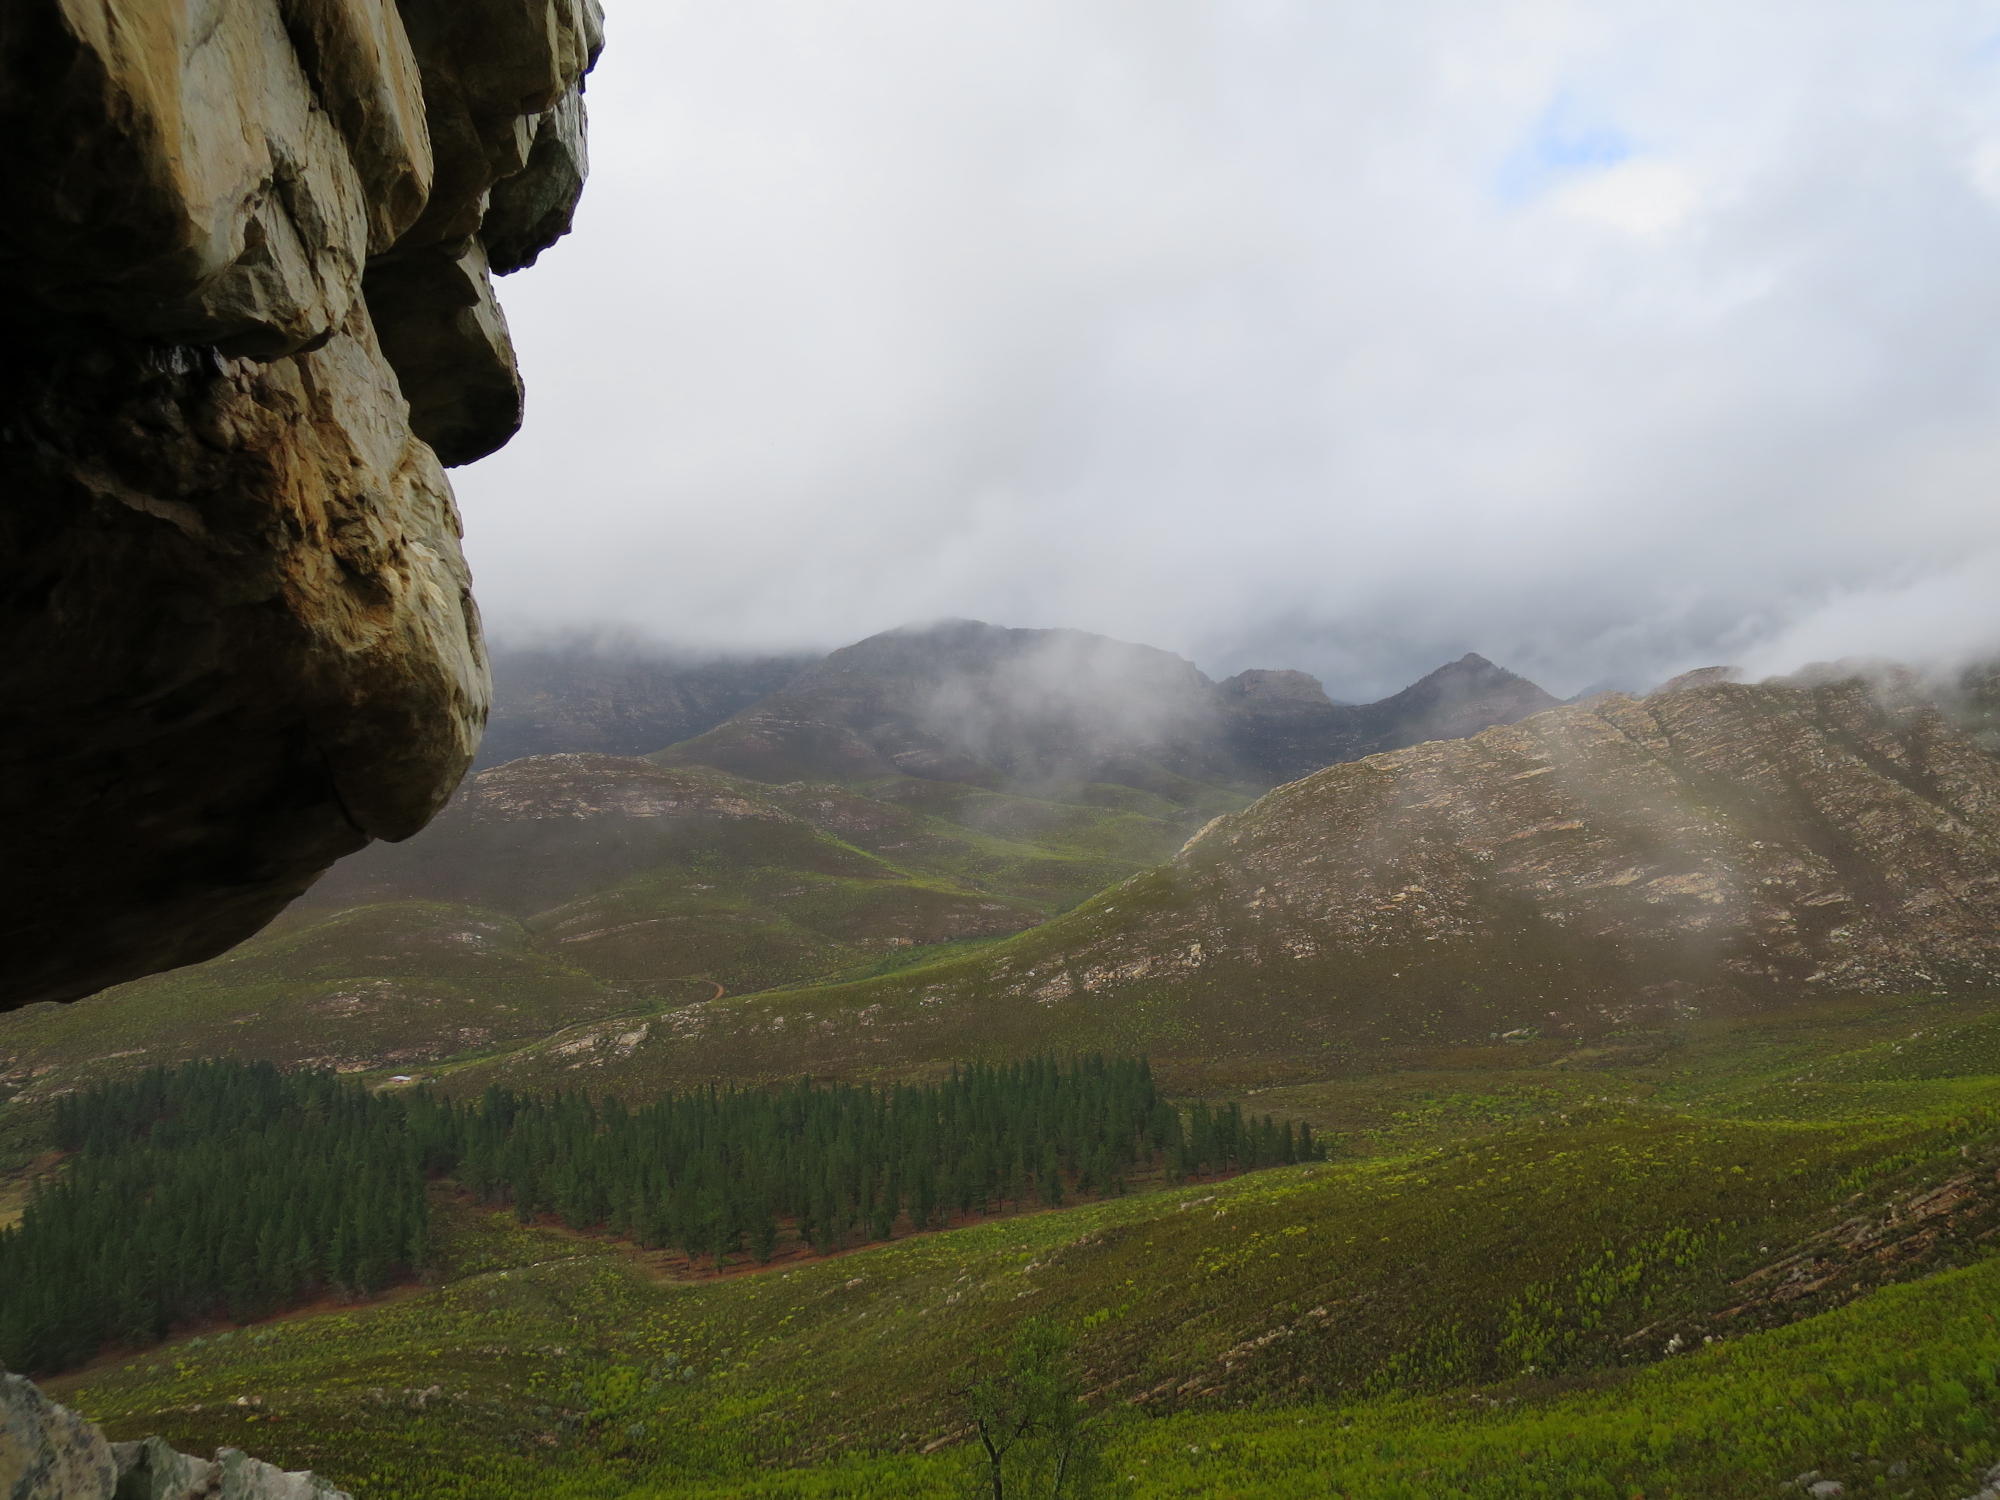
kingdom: Plantae
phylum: Tracheophyta
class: Pinopsida
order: Pinales
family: Pinaceae
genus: Pinus
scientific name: Pinus radiata
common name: Monterey pine
